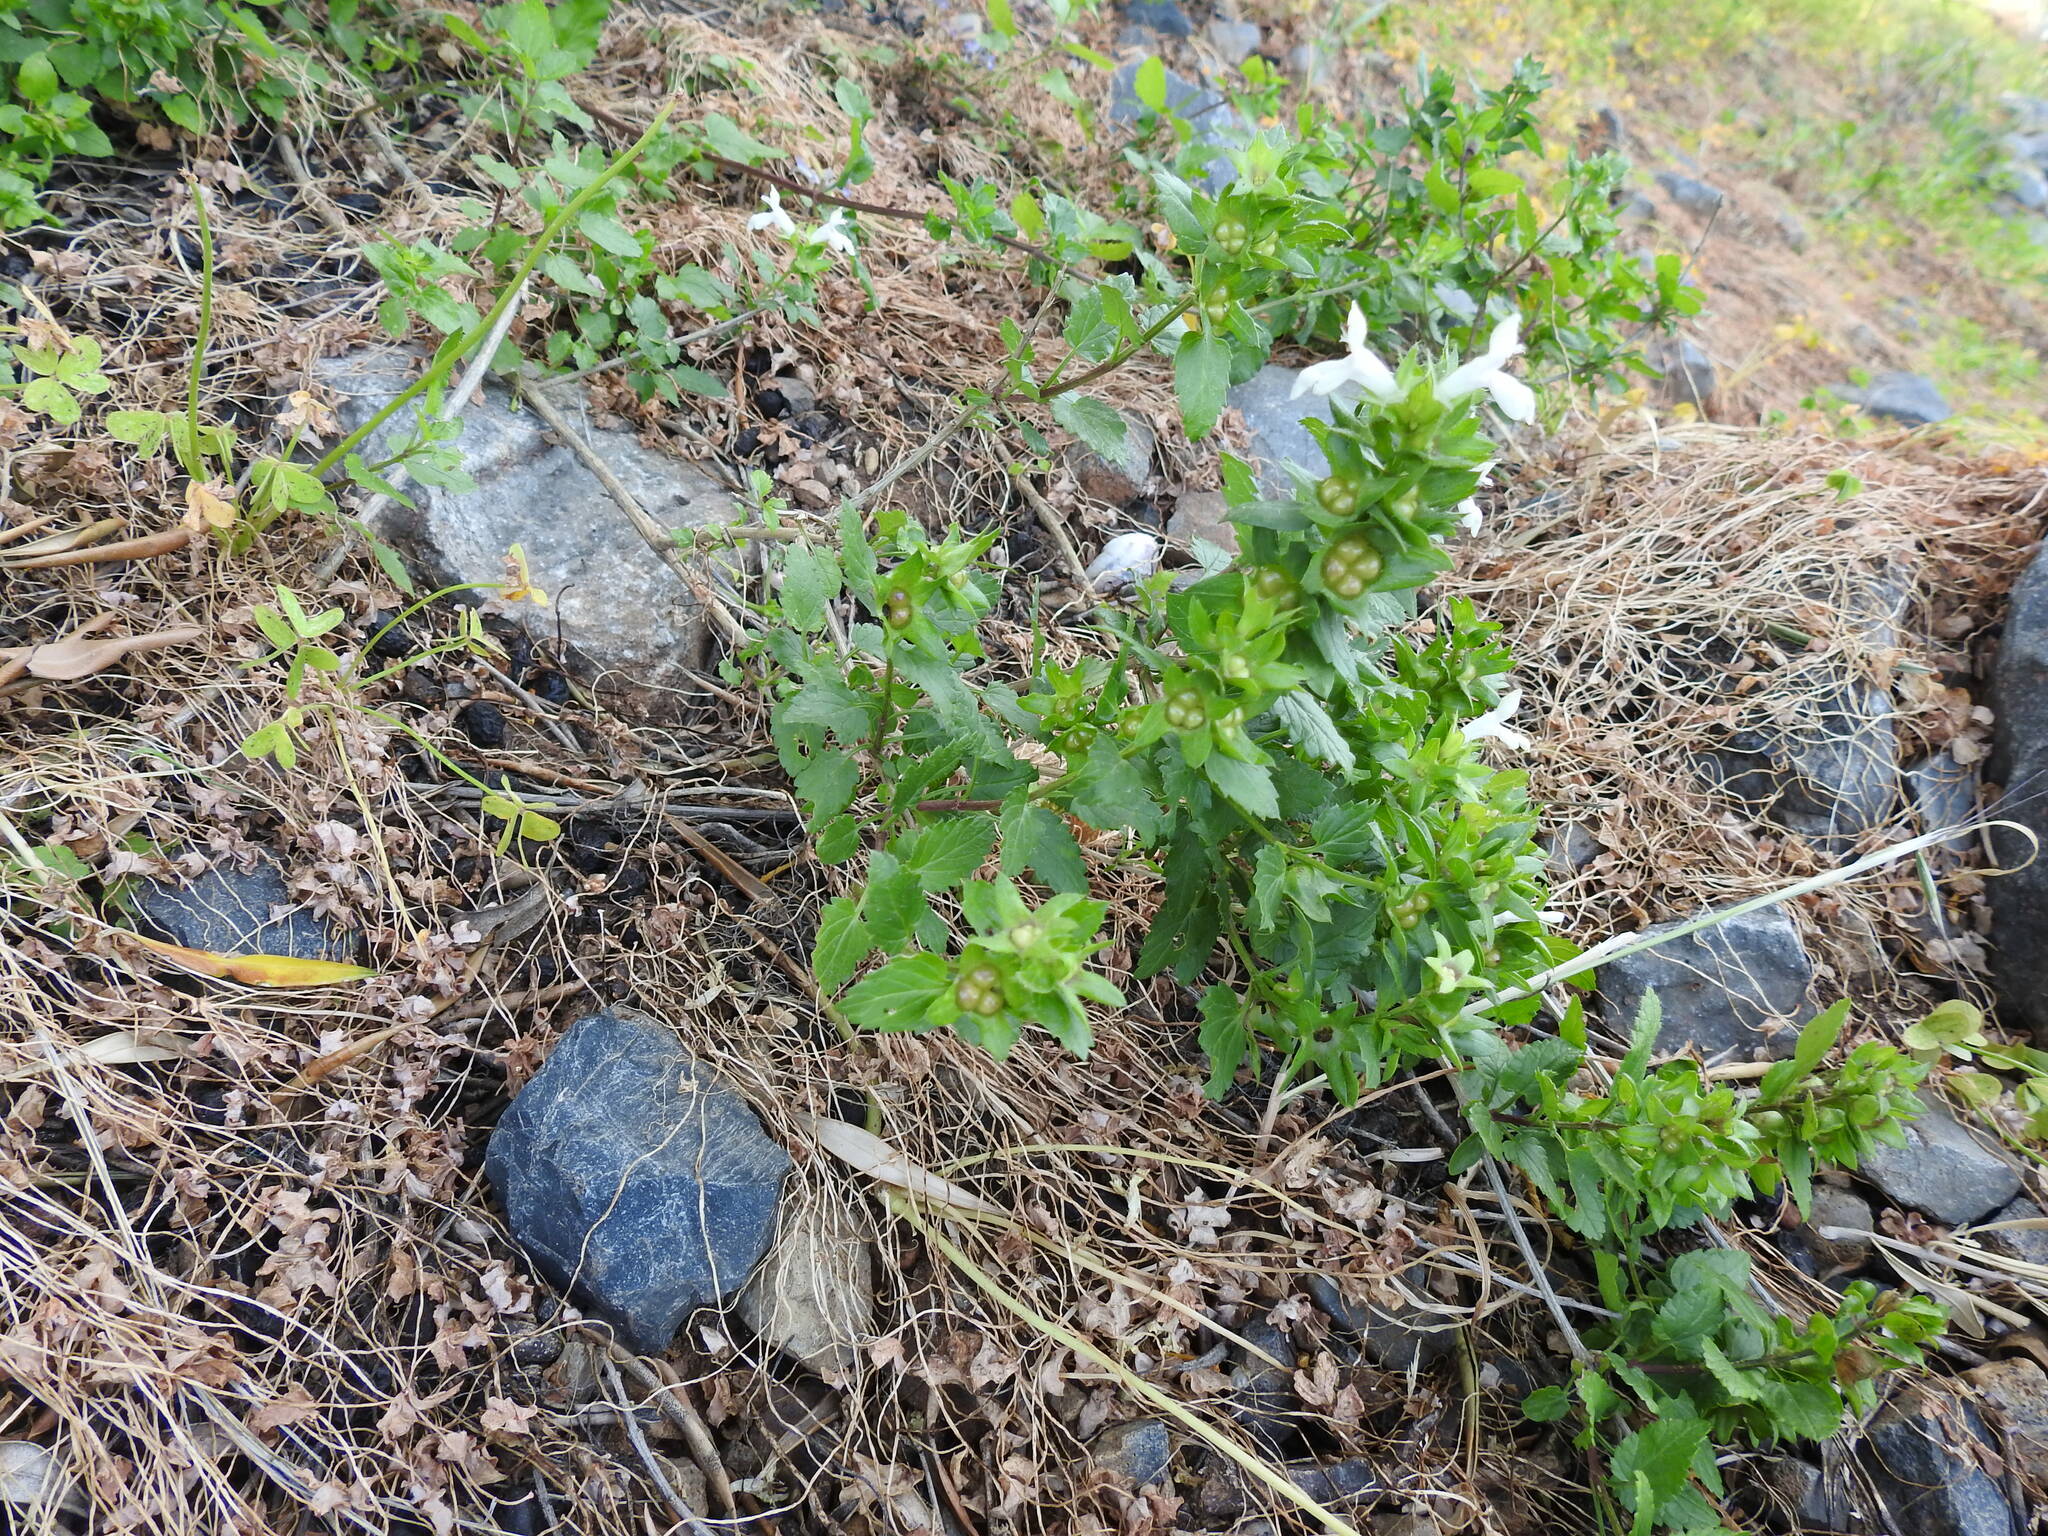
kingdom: Plantae
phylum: Tracheophyta
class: Magnoliopsida
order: Lamiales
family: Lamiaceae
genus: Prasium
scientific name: Prasium majus
